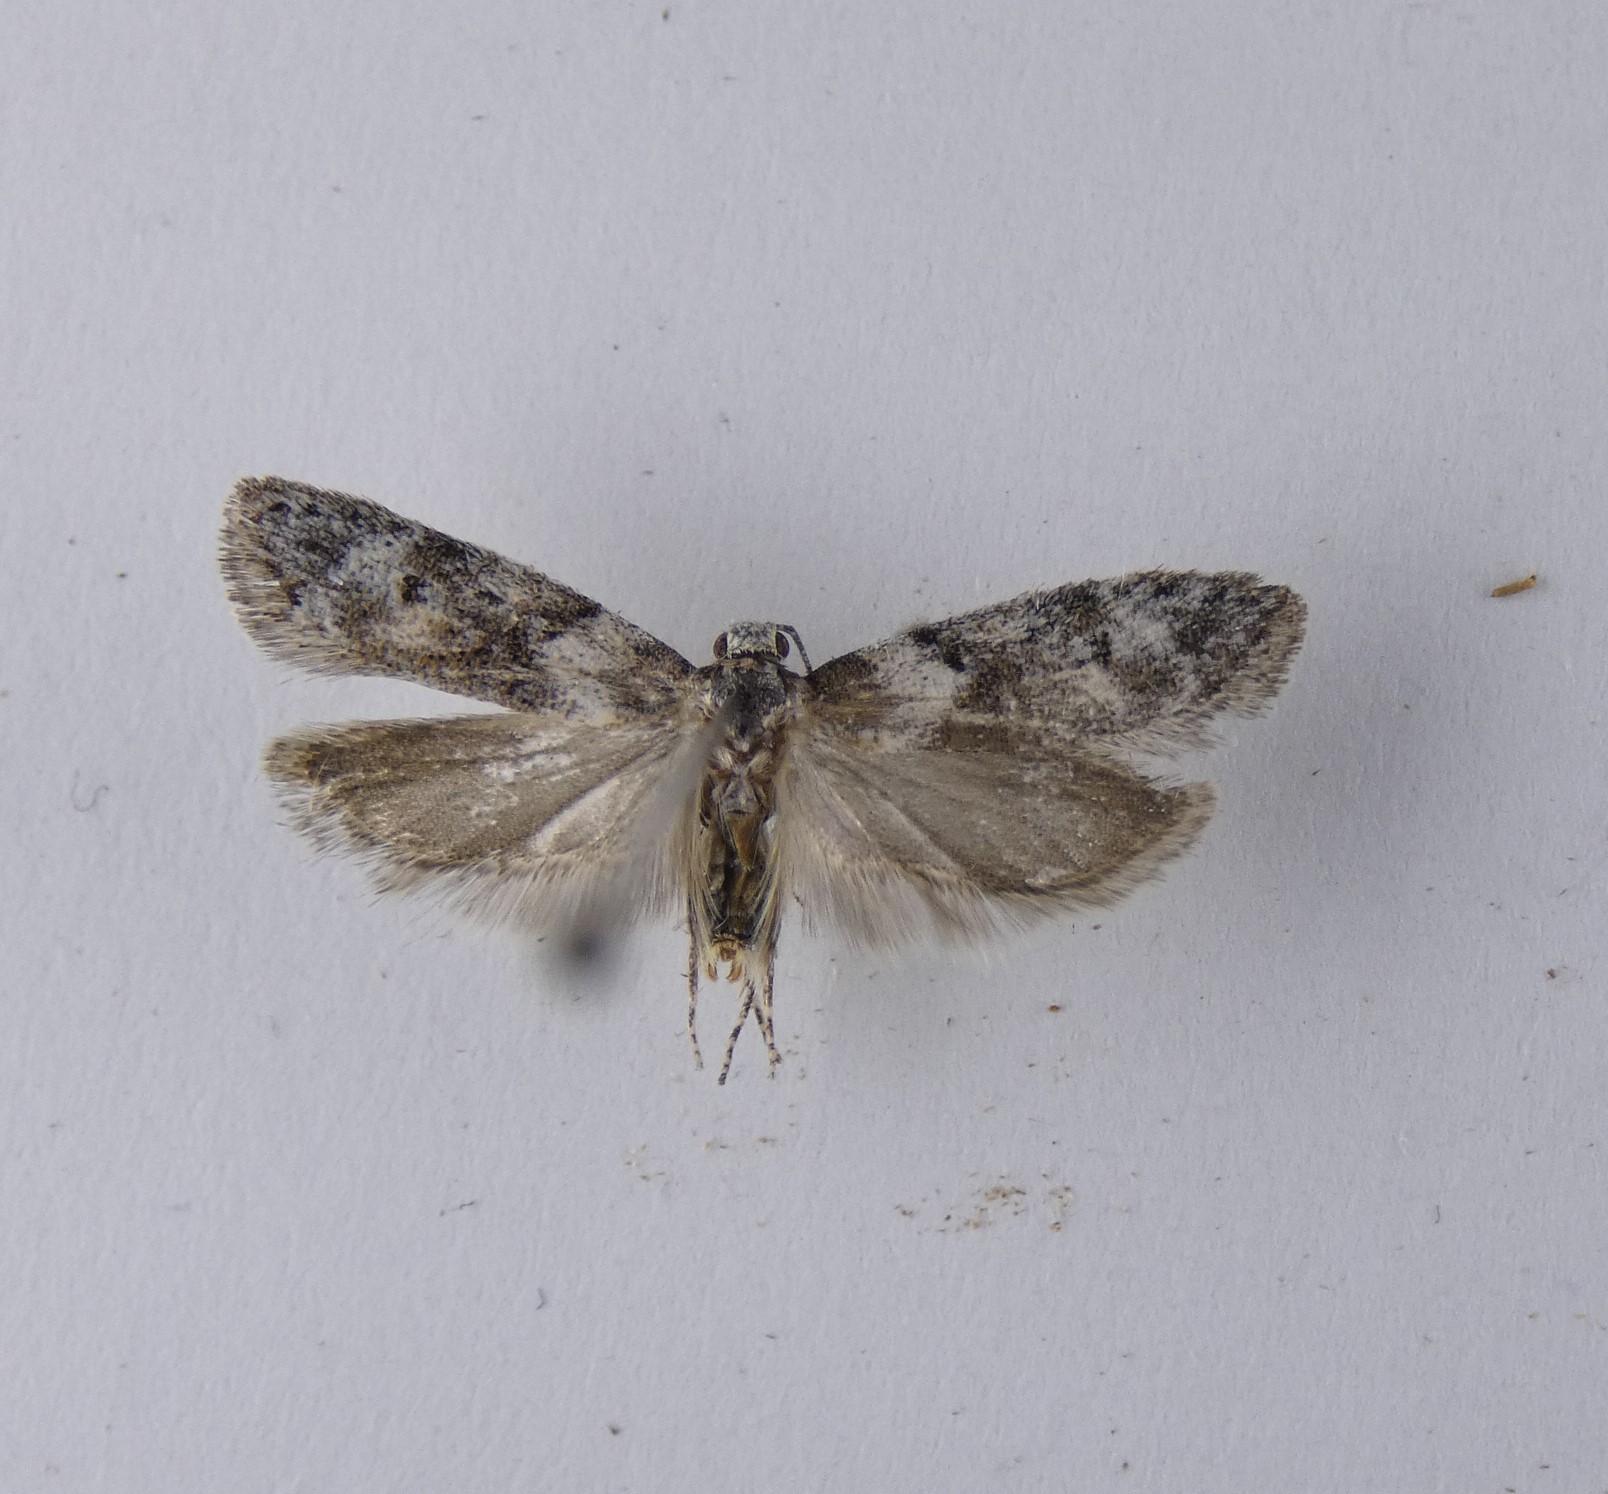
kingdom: Animalia
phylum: Arthropoda
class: Insecta
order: Lepidoptera
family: Oecophoridae
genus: Izatha
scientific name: Izatha convulsella
